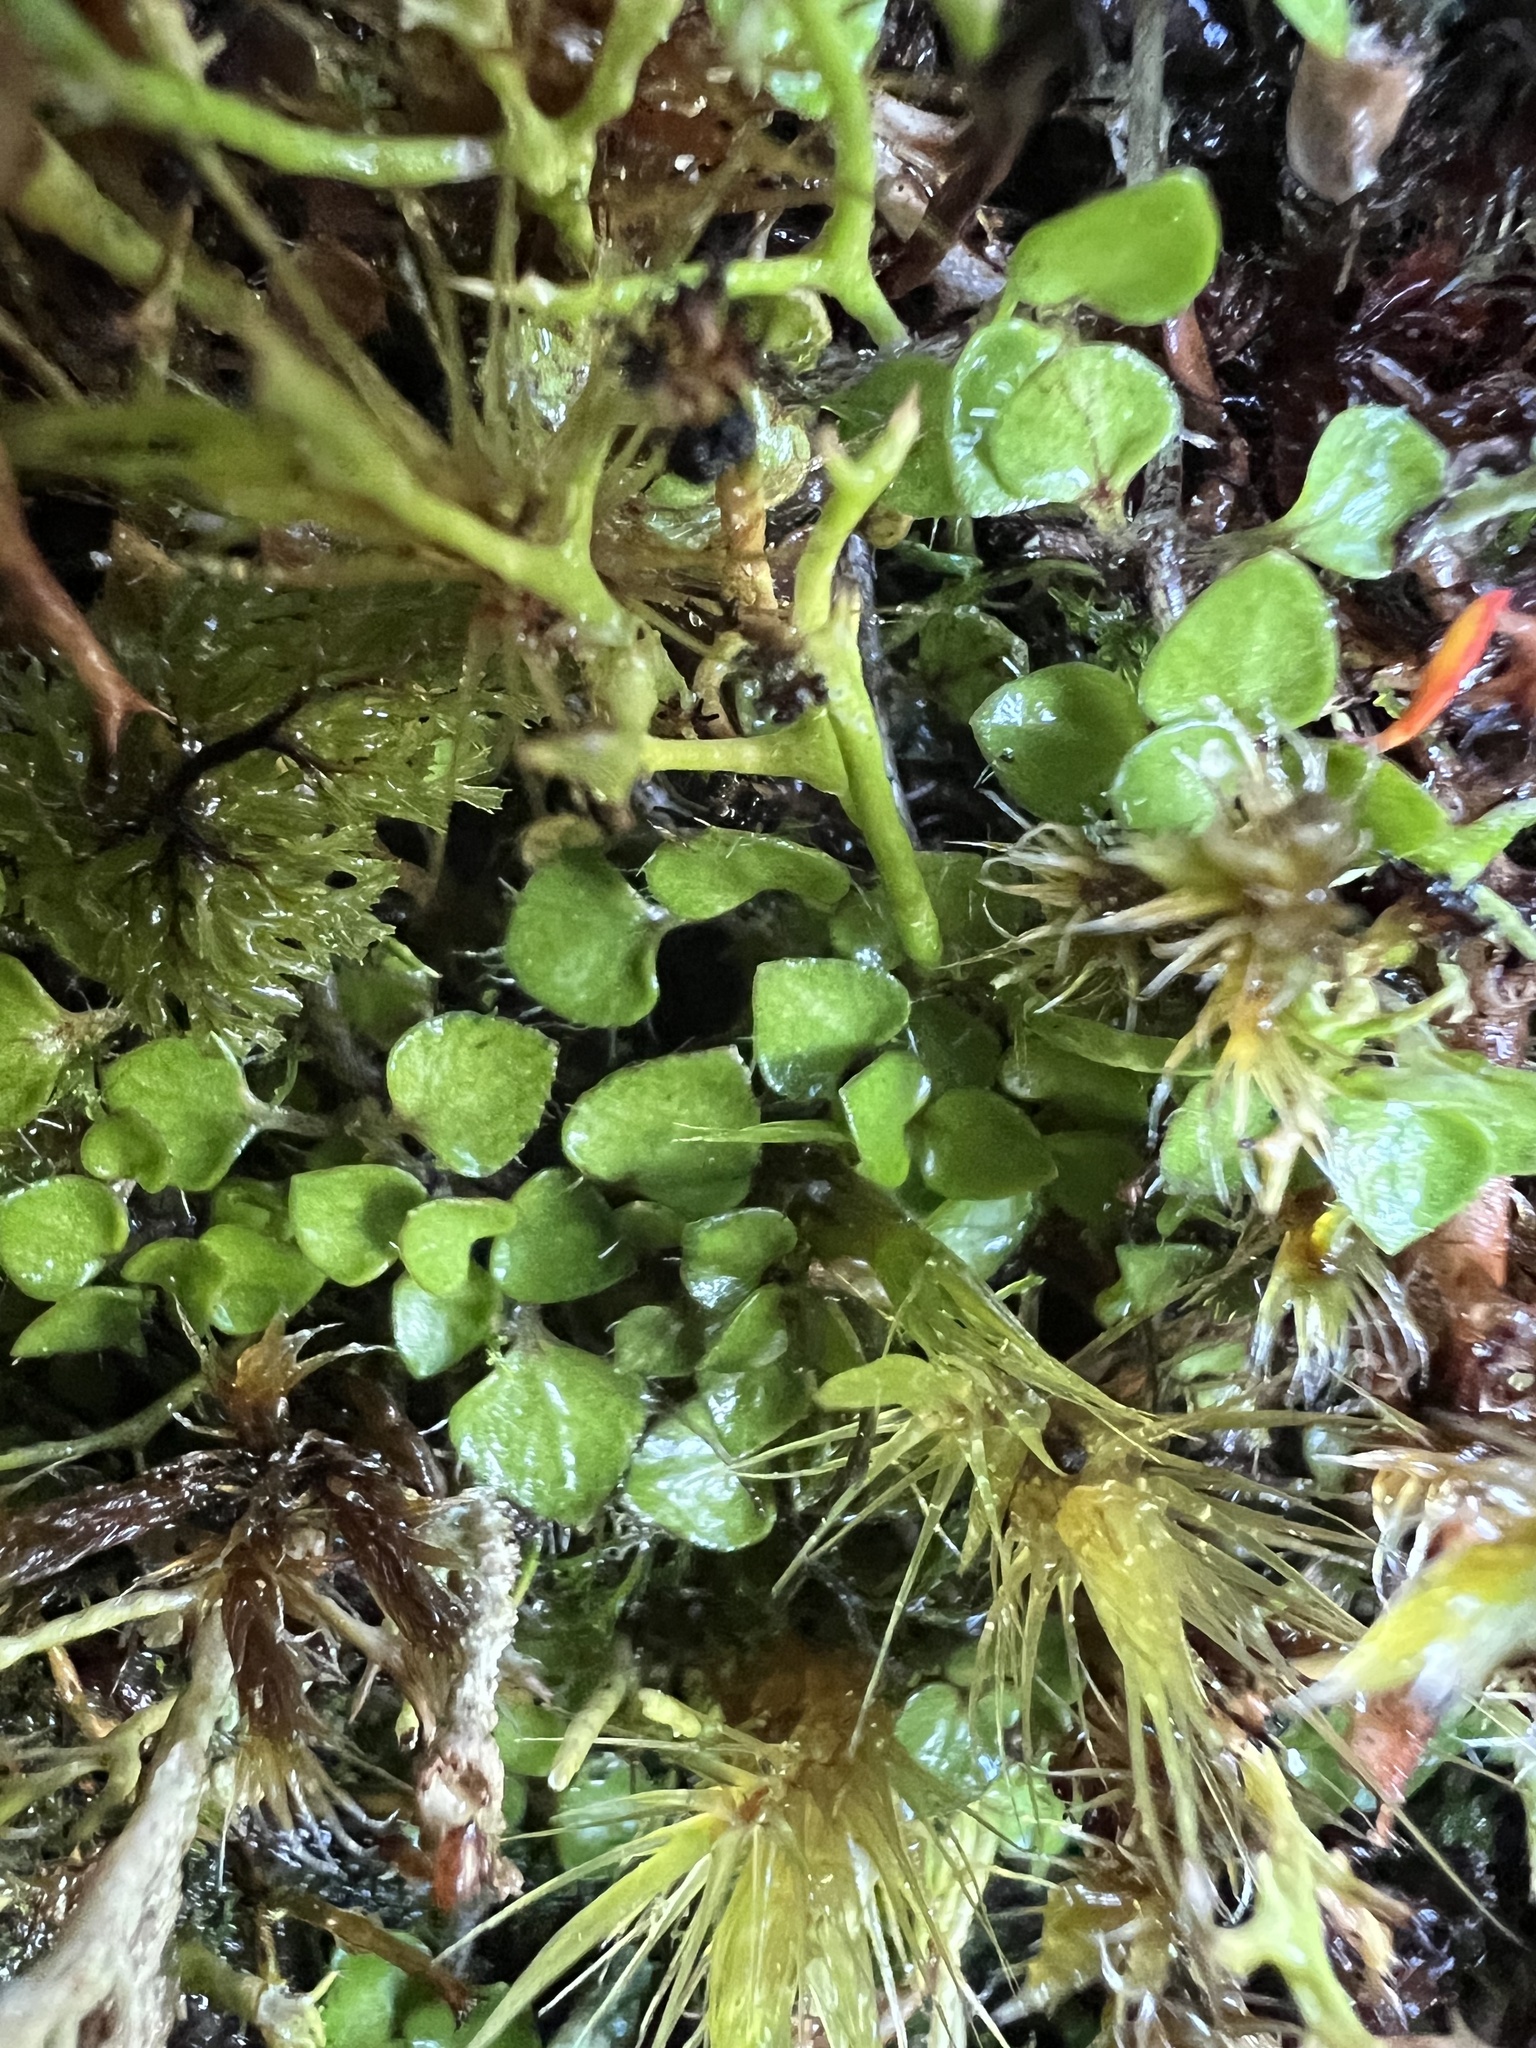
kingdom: Plantae
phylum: Tracheophyta
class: Magnoliopsida
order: Gentianales
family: Rubiaceae
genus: Nertera
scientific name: Nertera ciliata
